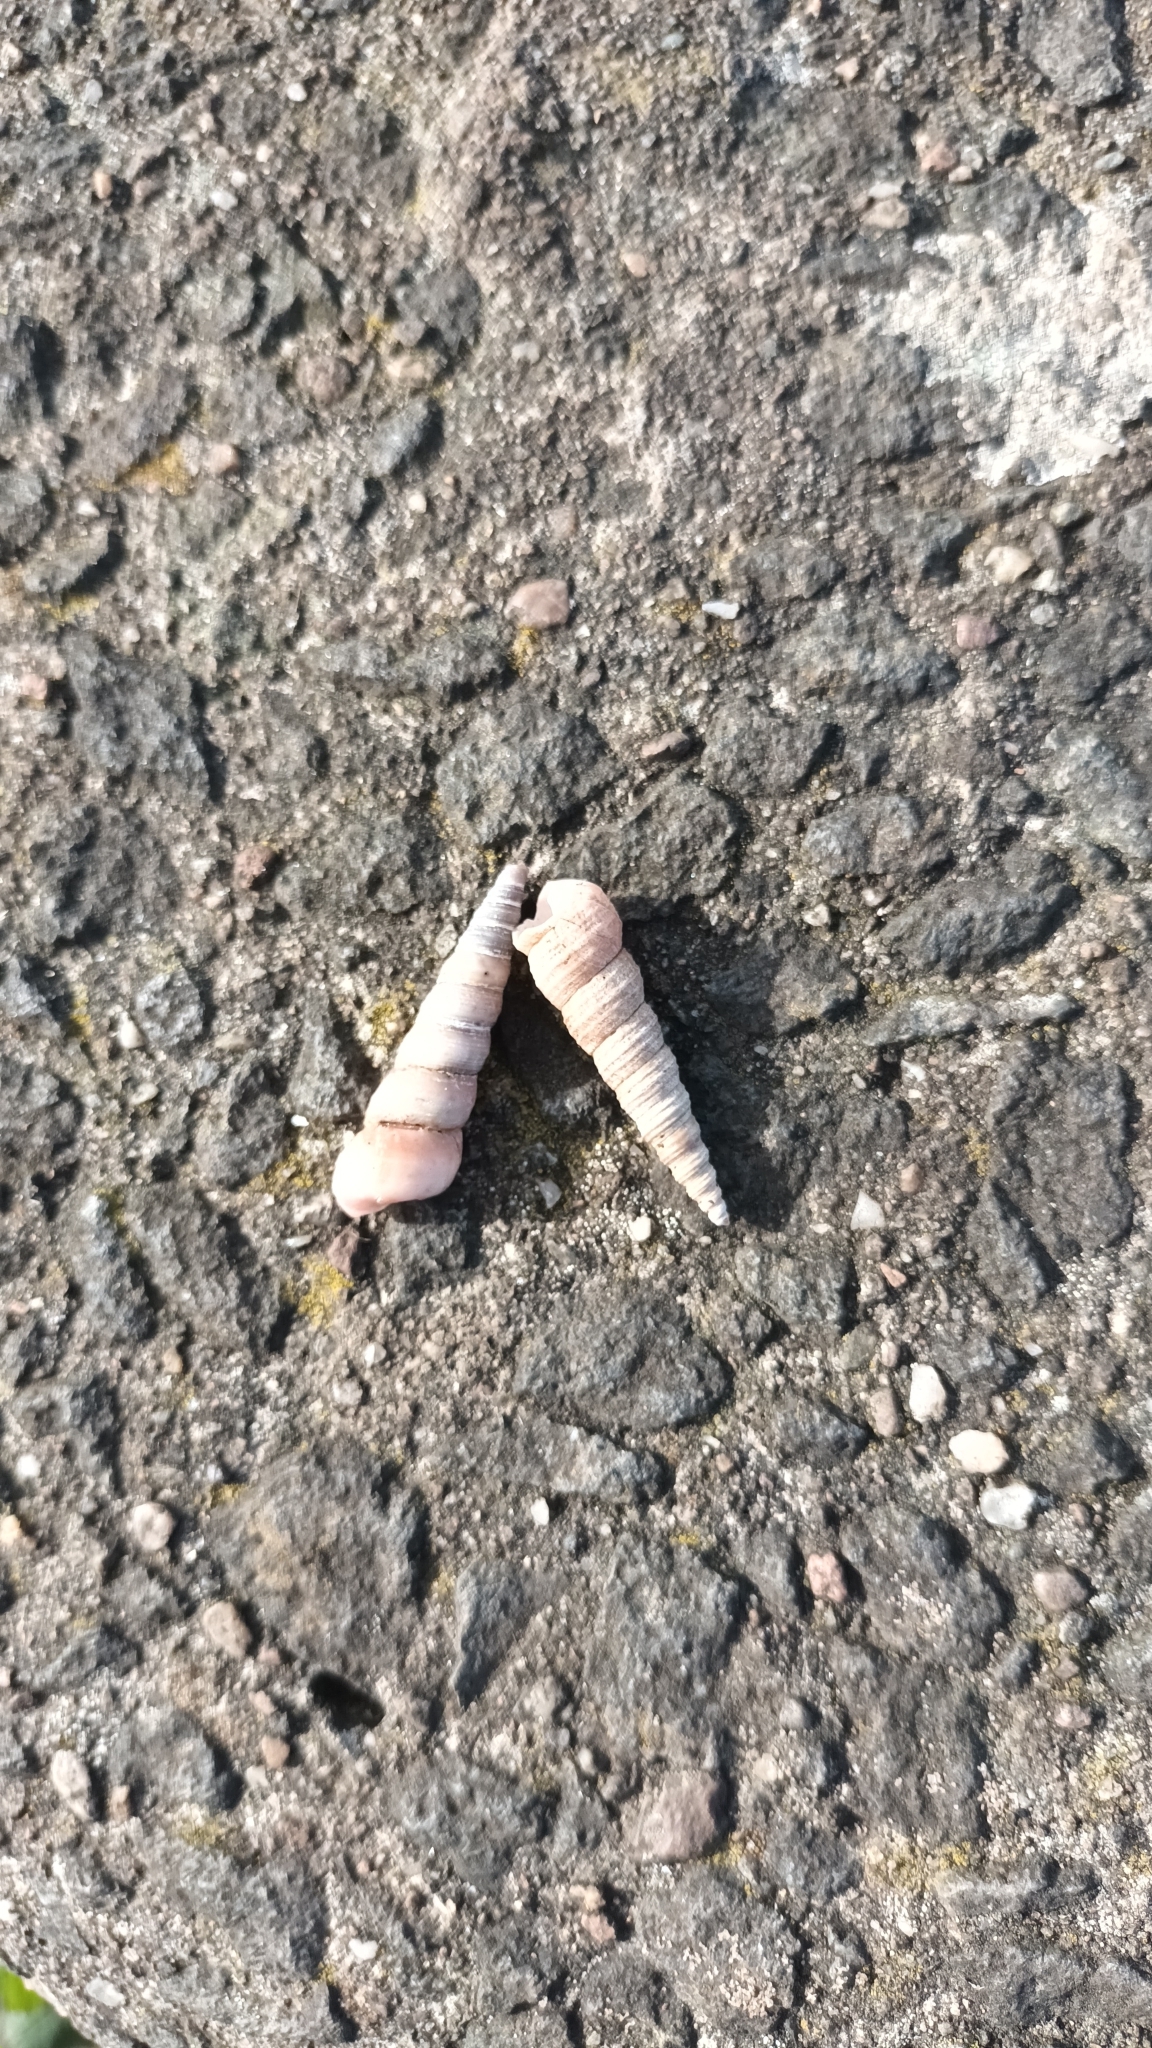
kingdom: Animalia
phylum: Mollusca
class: Gastropoda
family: Turritellidae
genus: Turritellinella
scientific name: Turritellinella tricarinata
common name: Auger shell
